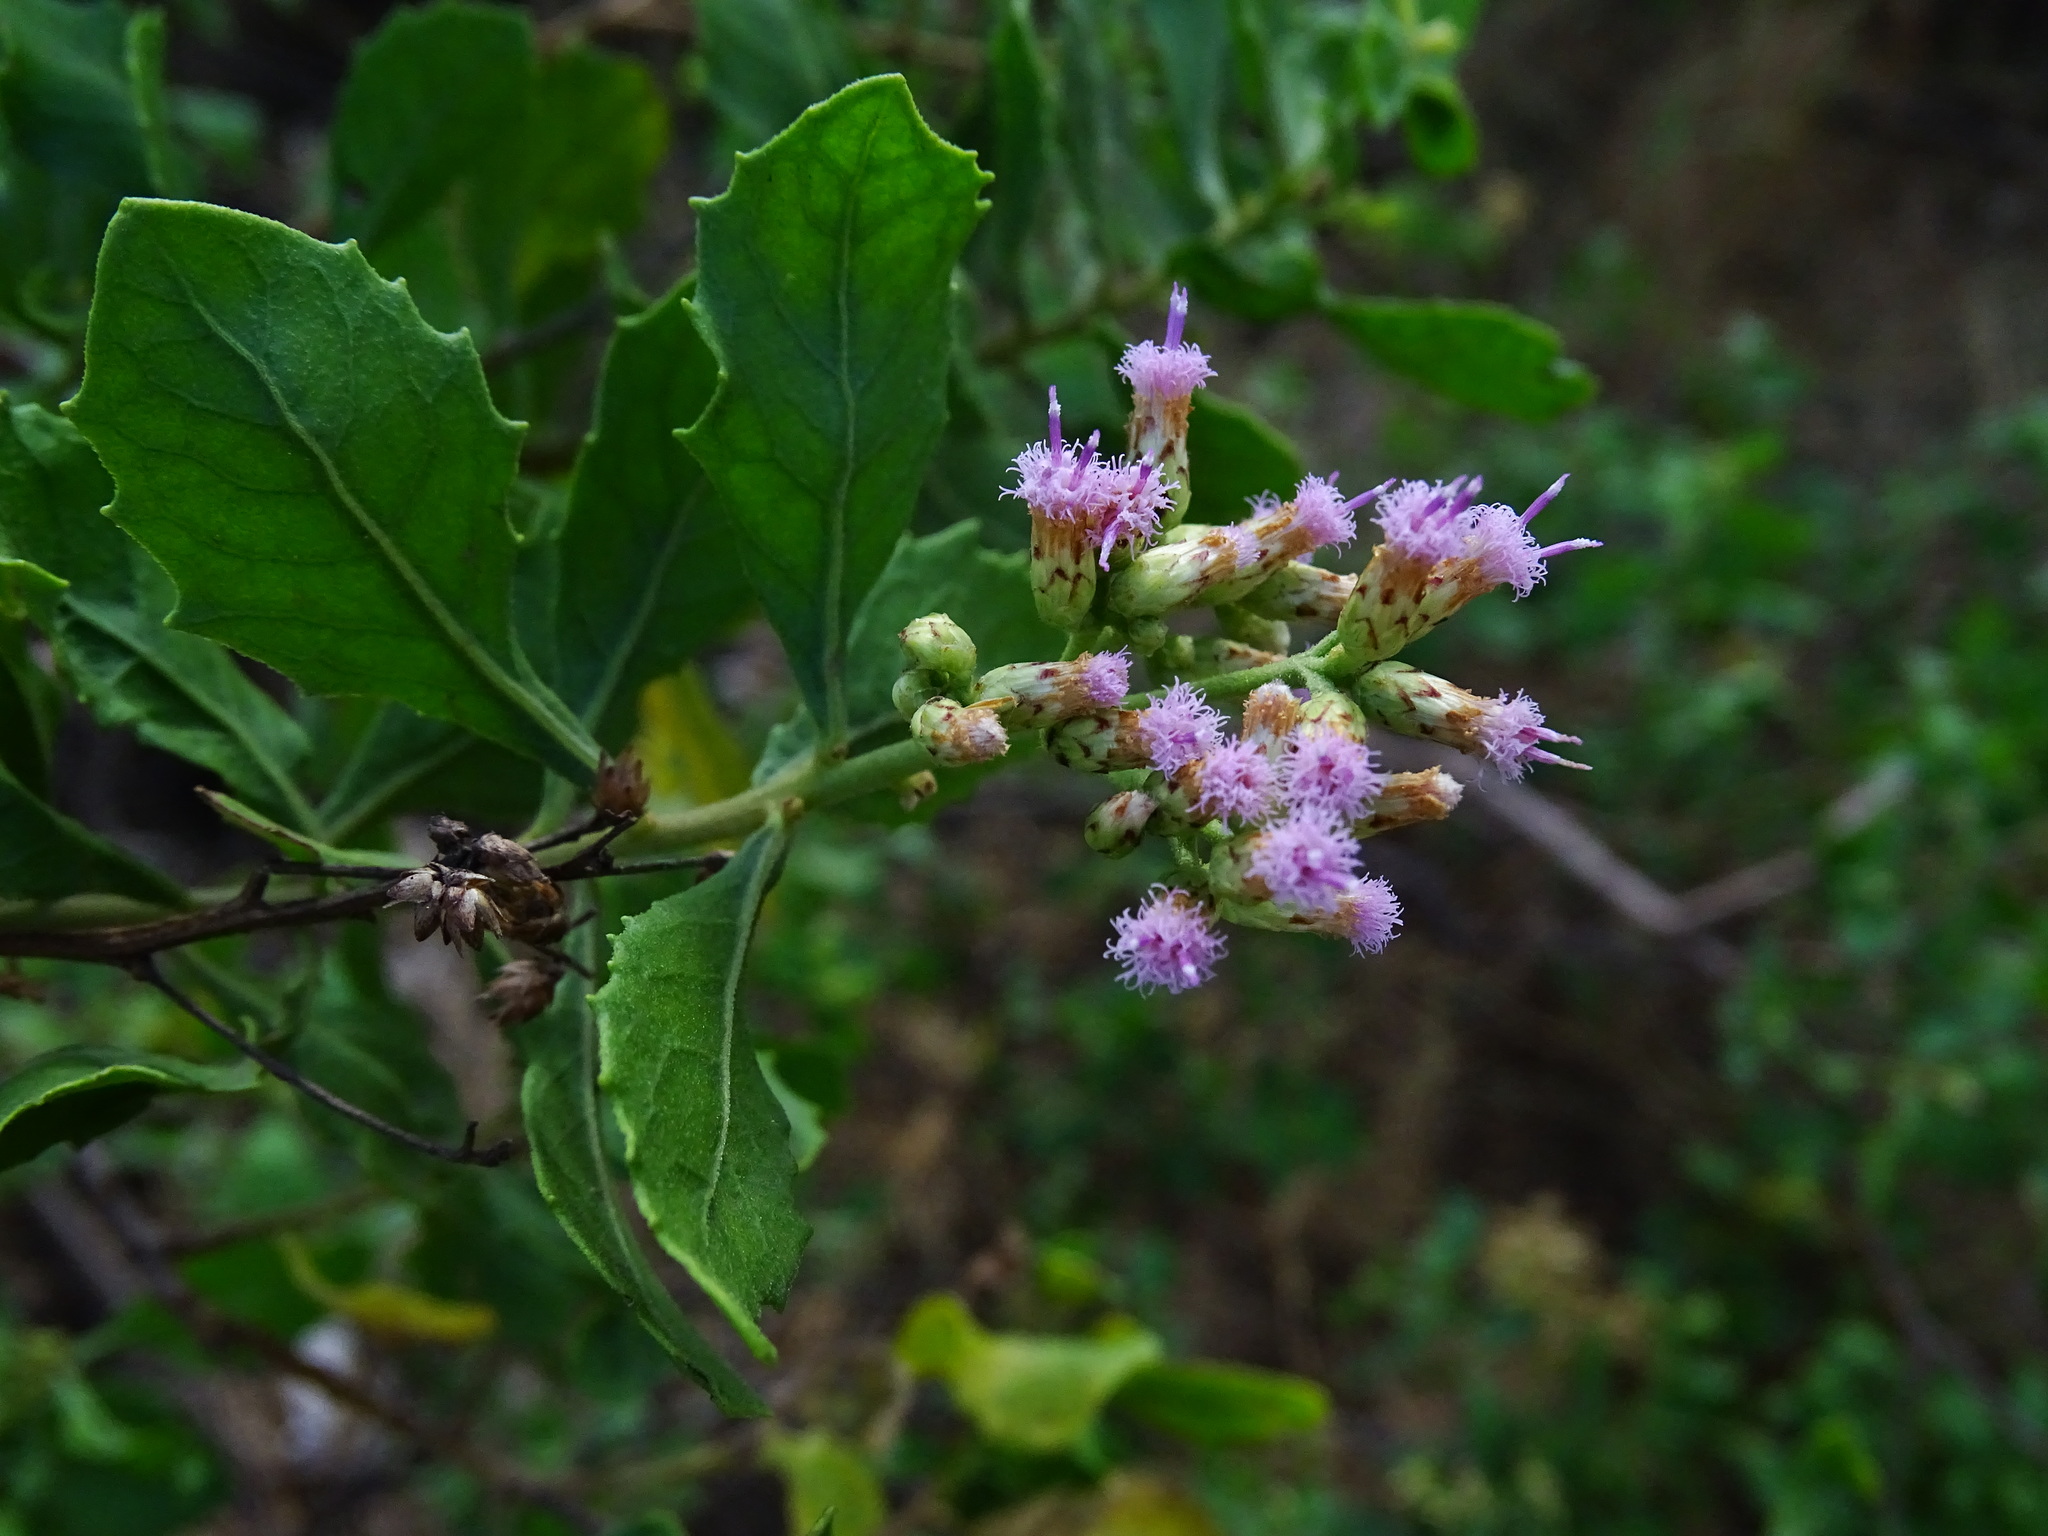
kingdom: Plantae
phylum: Tracheophyta
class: Magnoliopsida
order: Asterales
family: Asteraceae
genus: Pluchea
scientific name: Pluchea indica
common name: Indian fleabane
